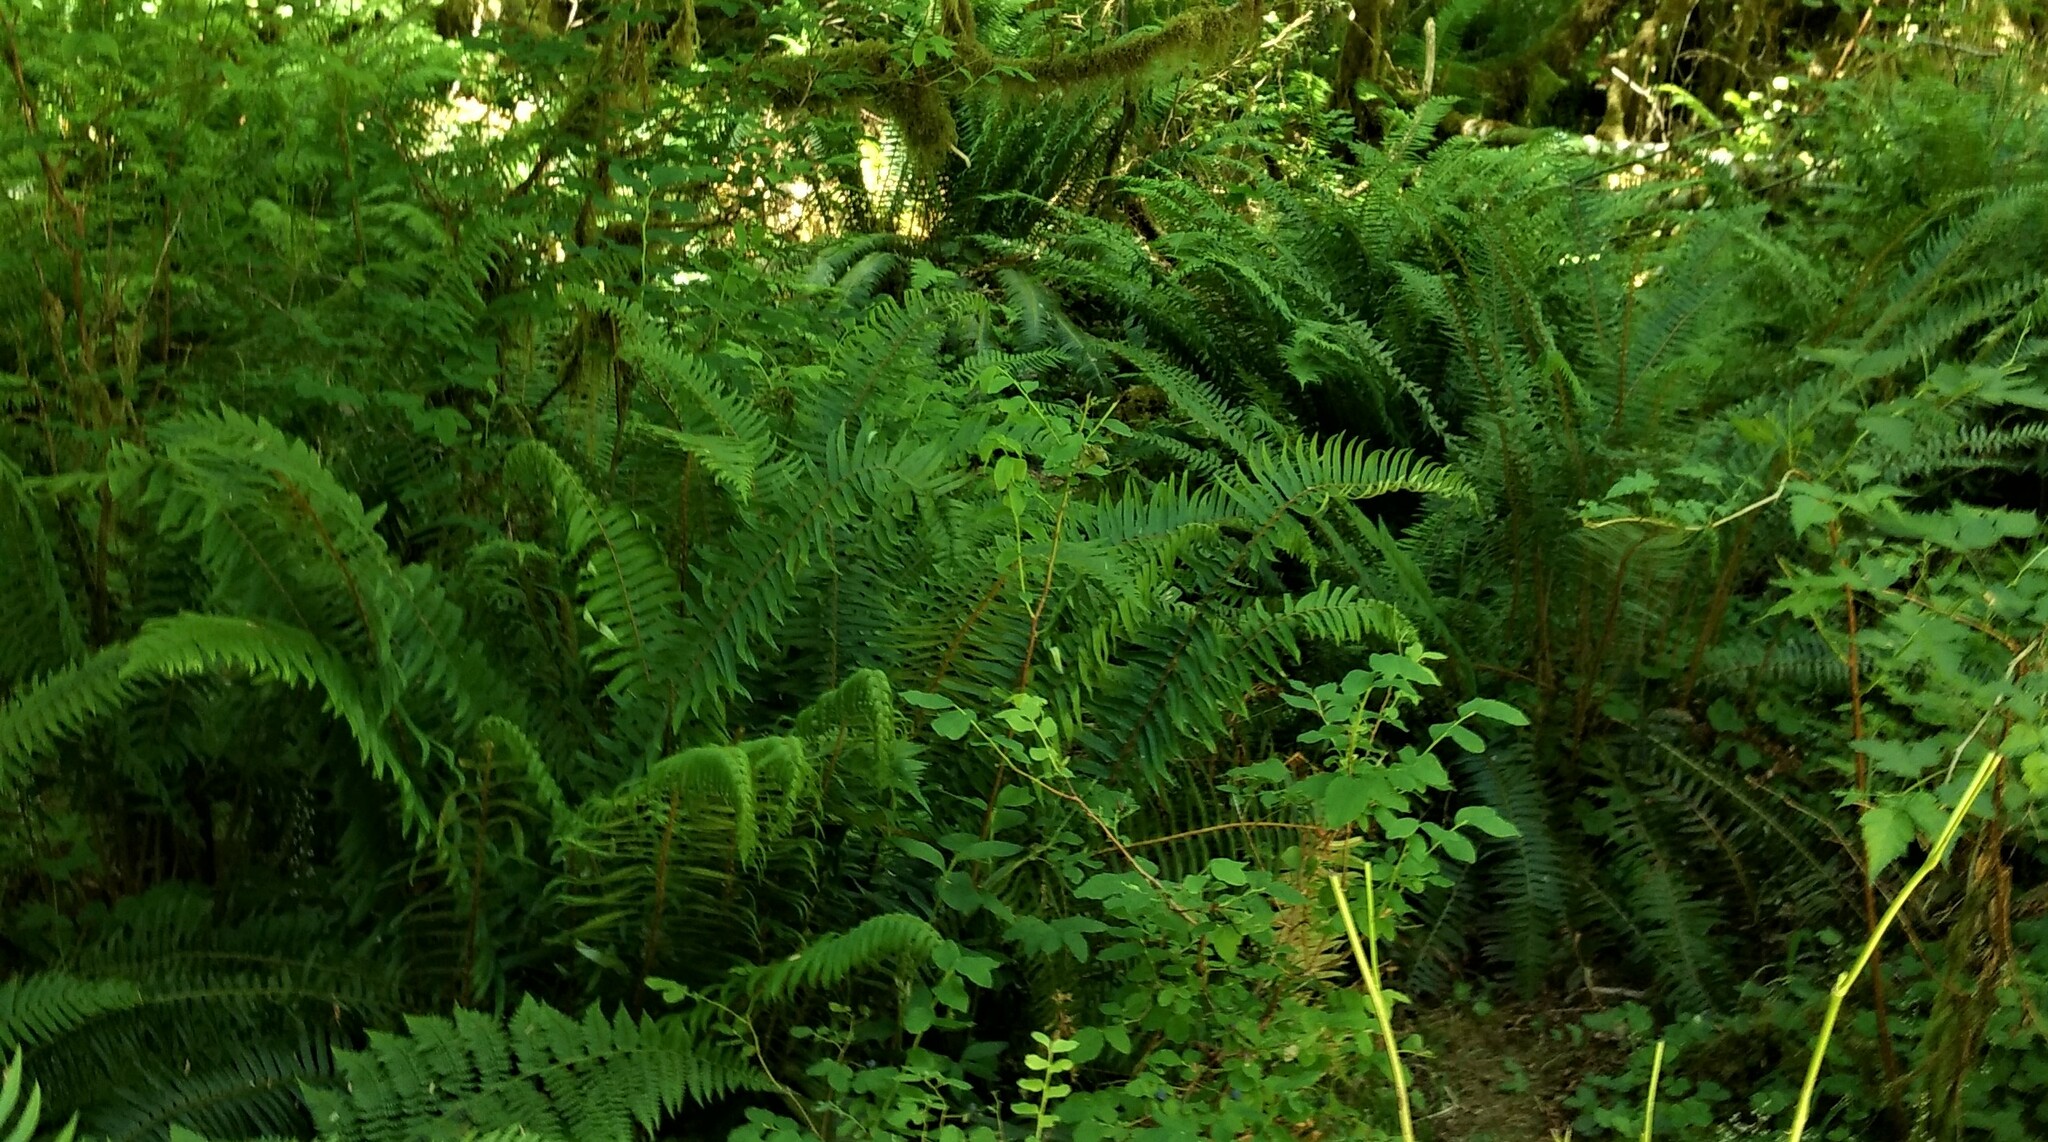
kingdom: Plantae
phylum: Tracheophyta
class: Polypodiopsida
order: Polypodiales
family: Dryopteridaceae
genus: Polystichum
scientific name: Polystichum munitum
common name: Western sword-fern
